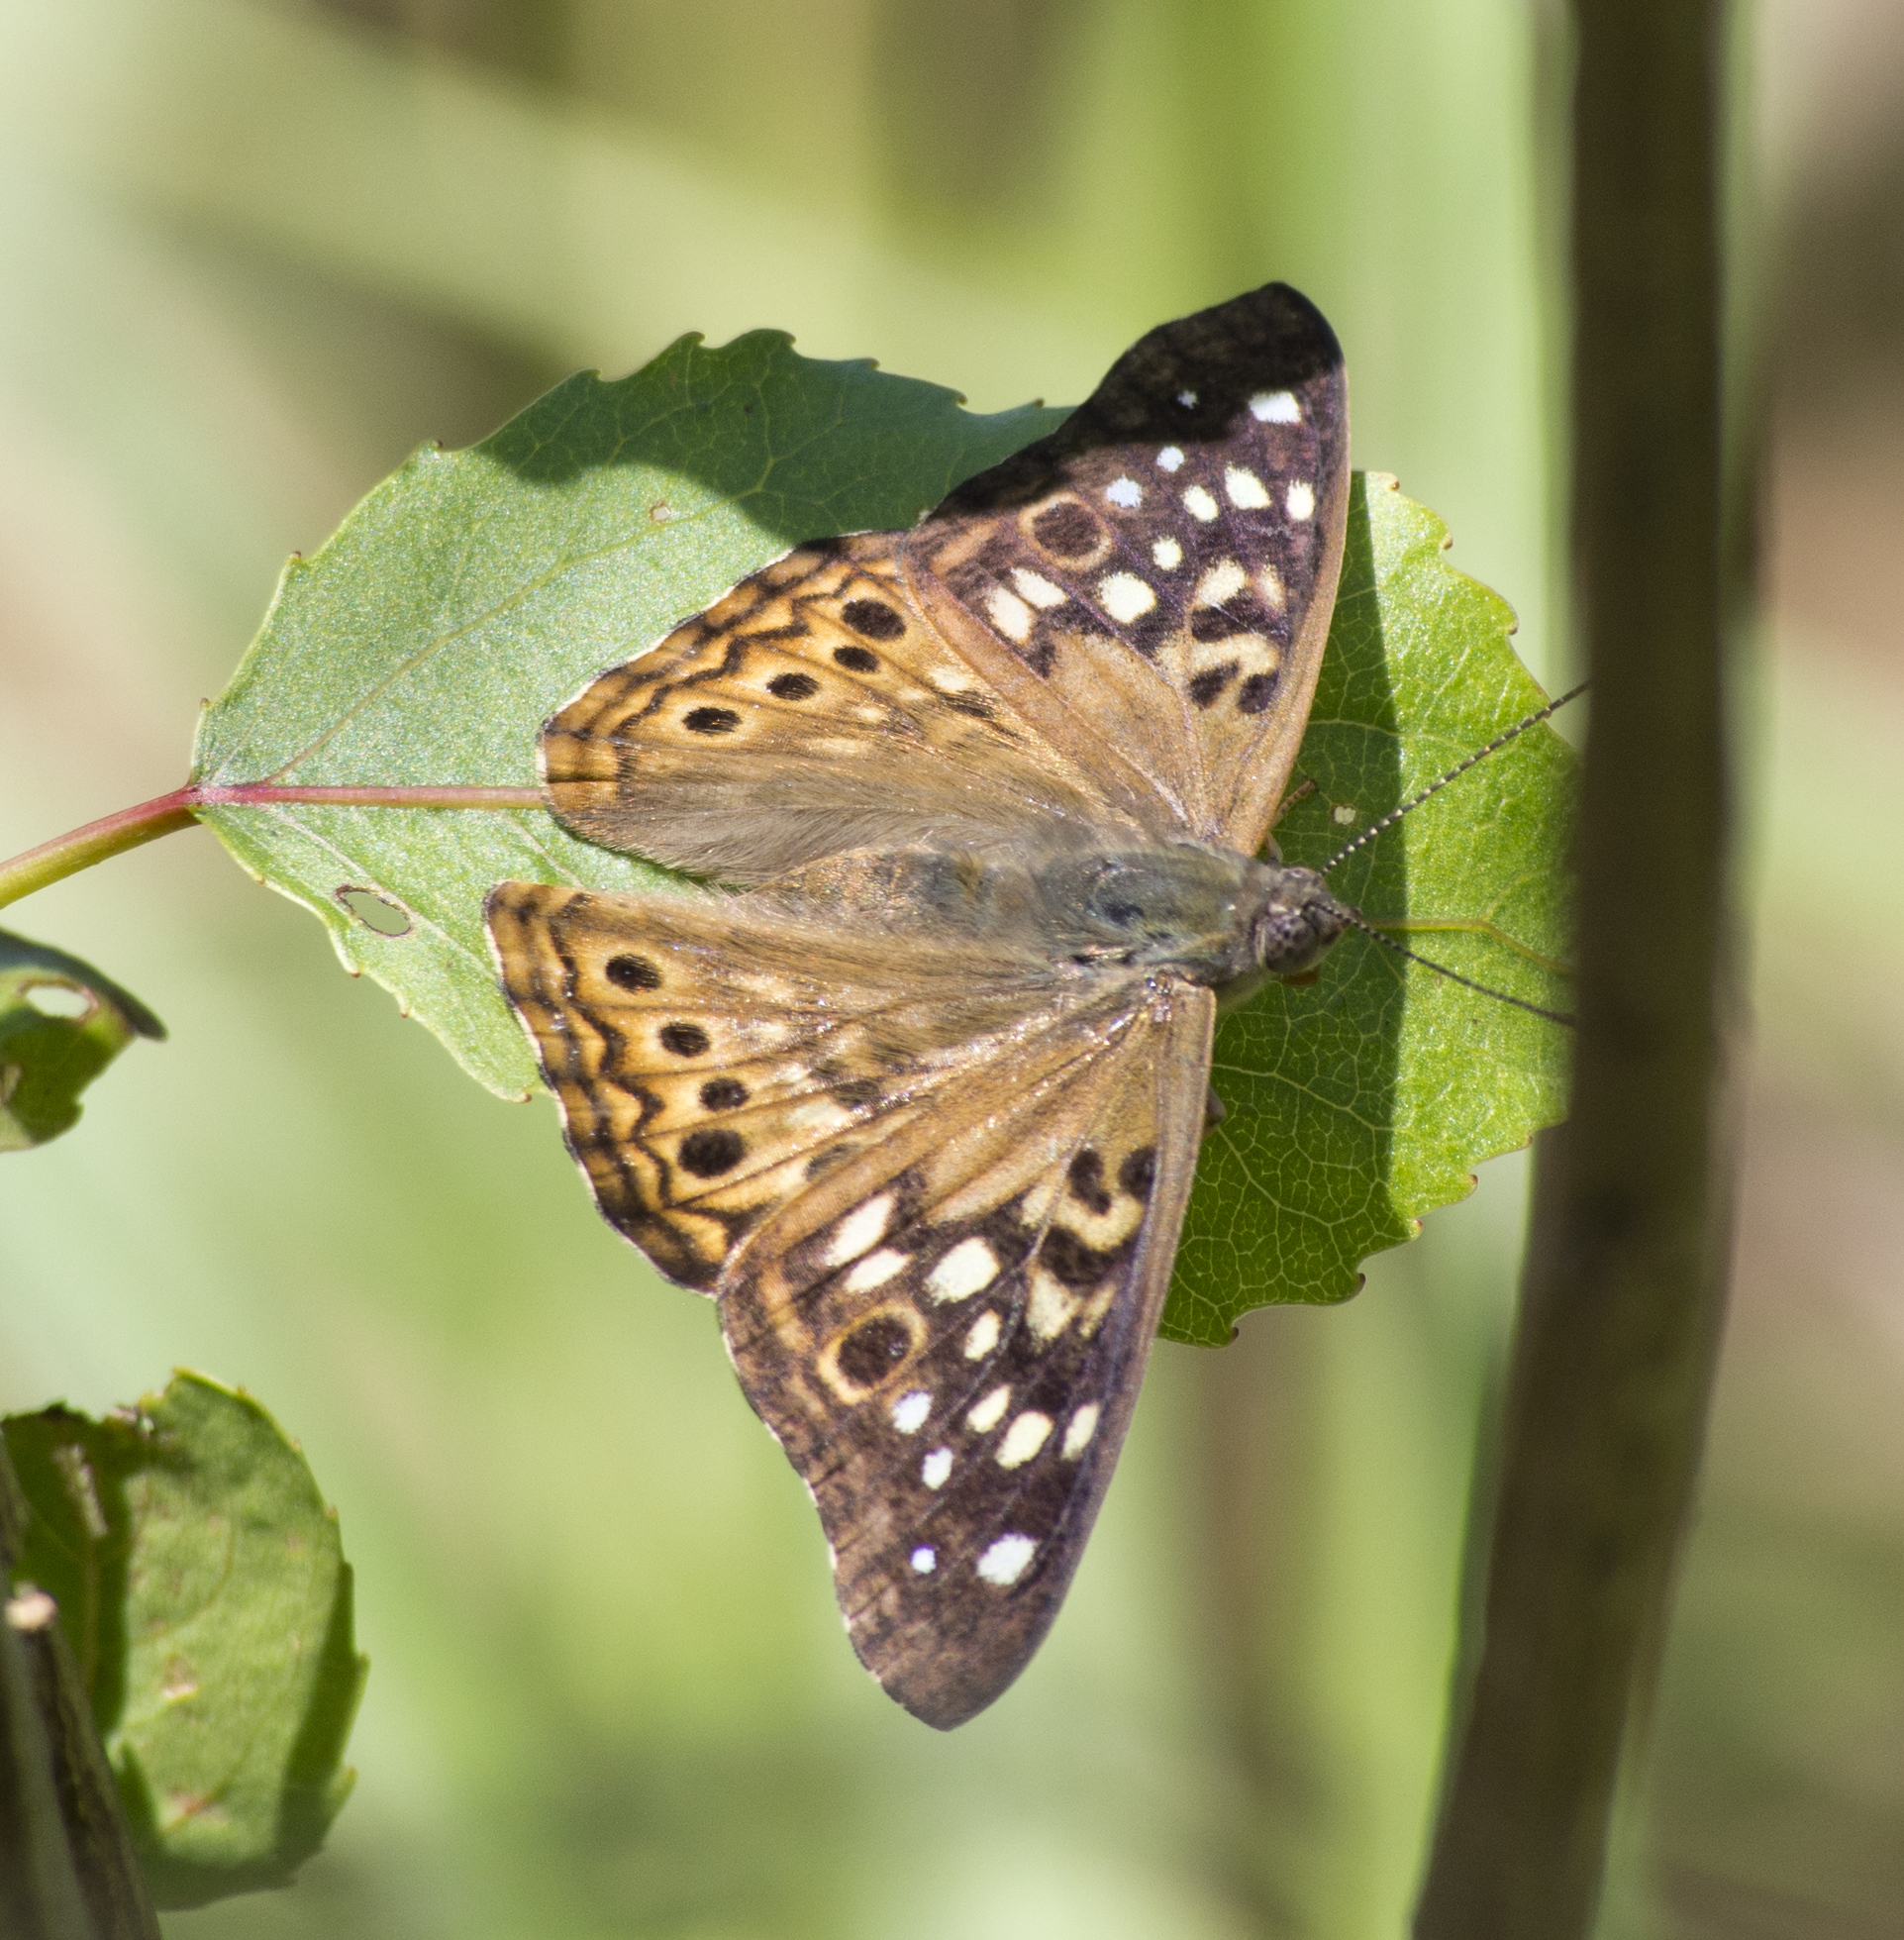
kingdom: Animalia
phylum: Arthropoda
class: Insecta
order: Lepidoptera
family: Nymphalidae
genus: Asterocampa
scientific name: Asterocampa celtis
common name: Hackberry emperor
